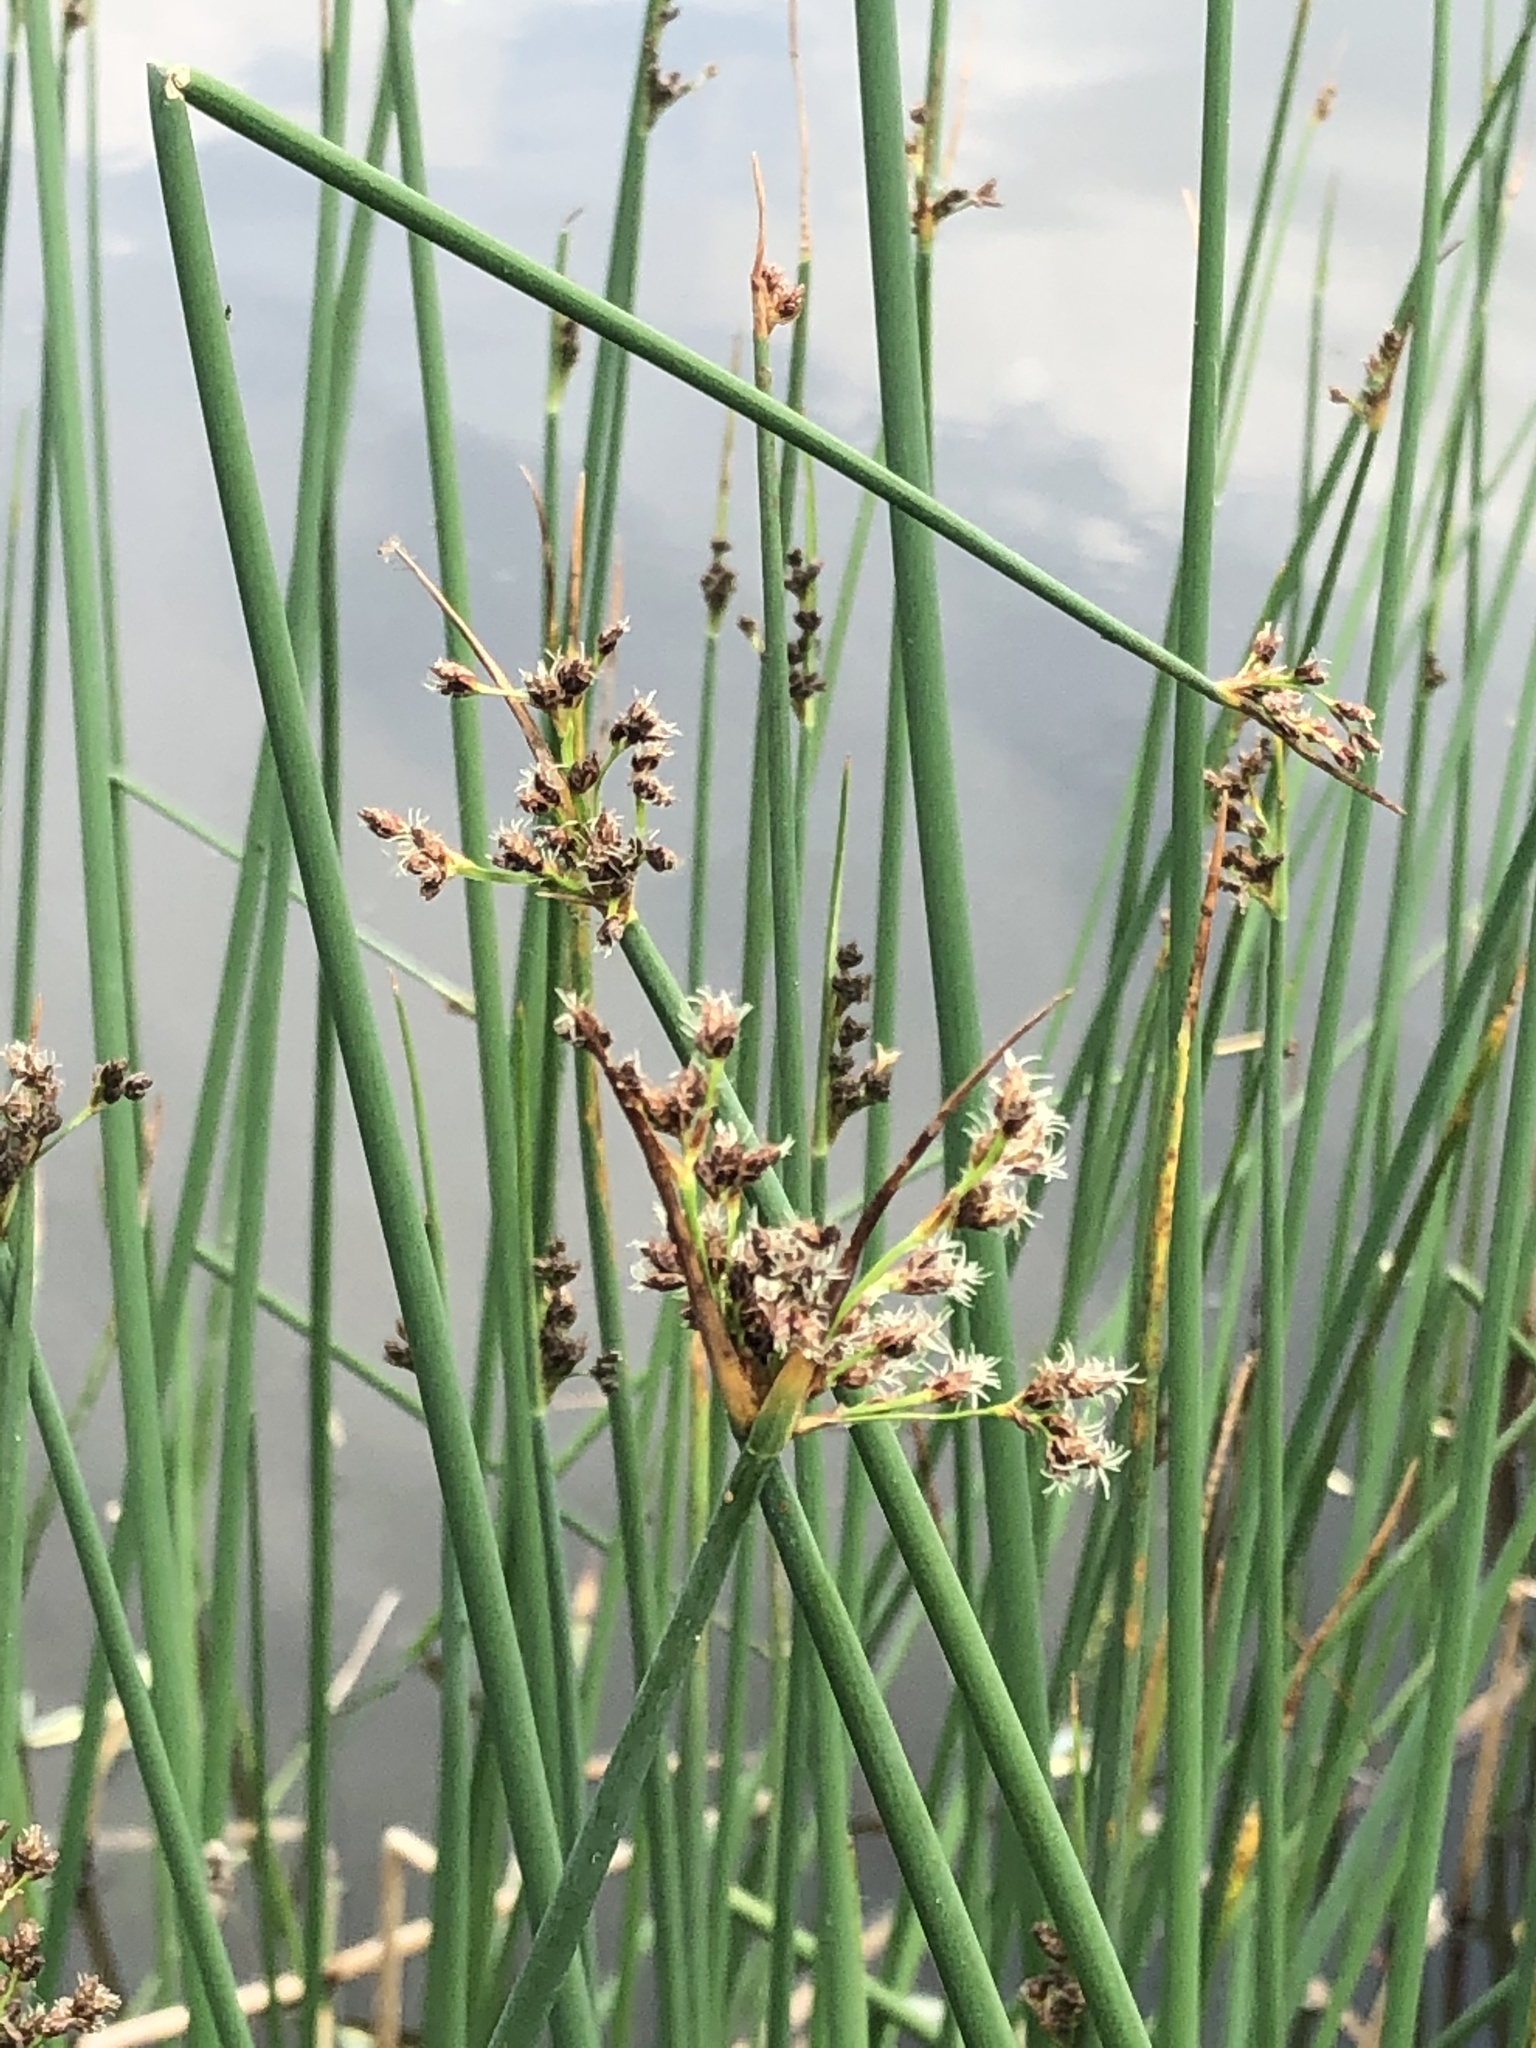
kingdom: Plantae
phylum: Tracheophyta
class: Liliopsida
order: Poales
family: Cyperaceae
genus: Schoenoplectus
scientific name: Schoenoplectus tabernaemontani
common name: Grey club-rush
